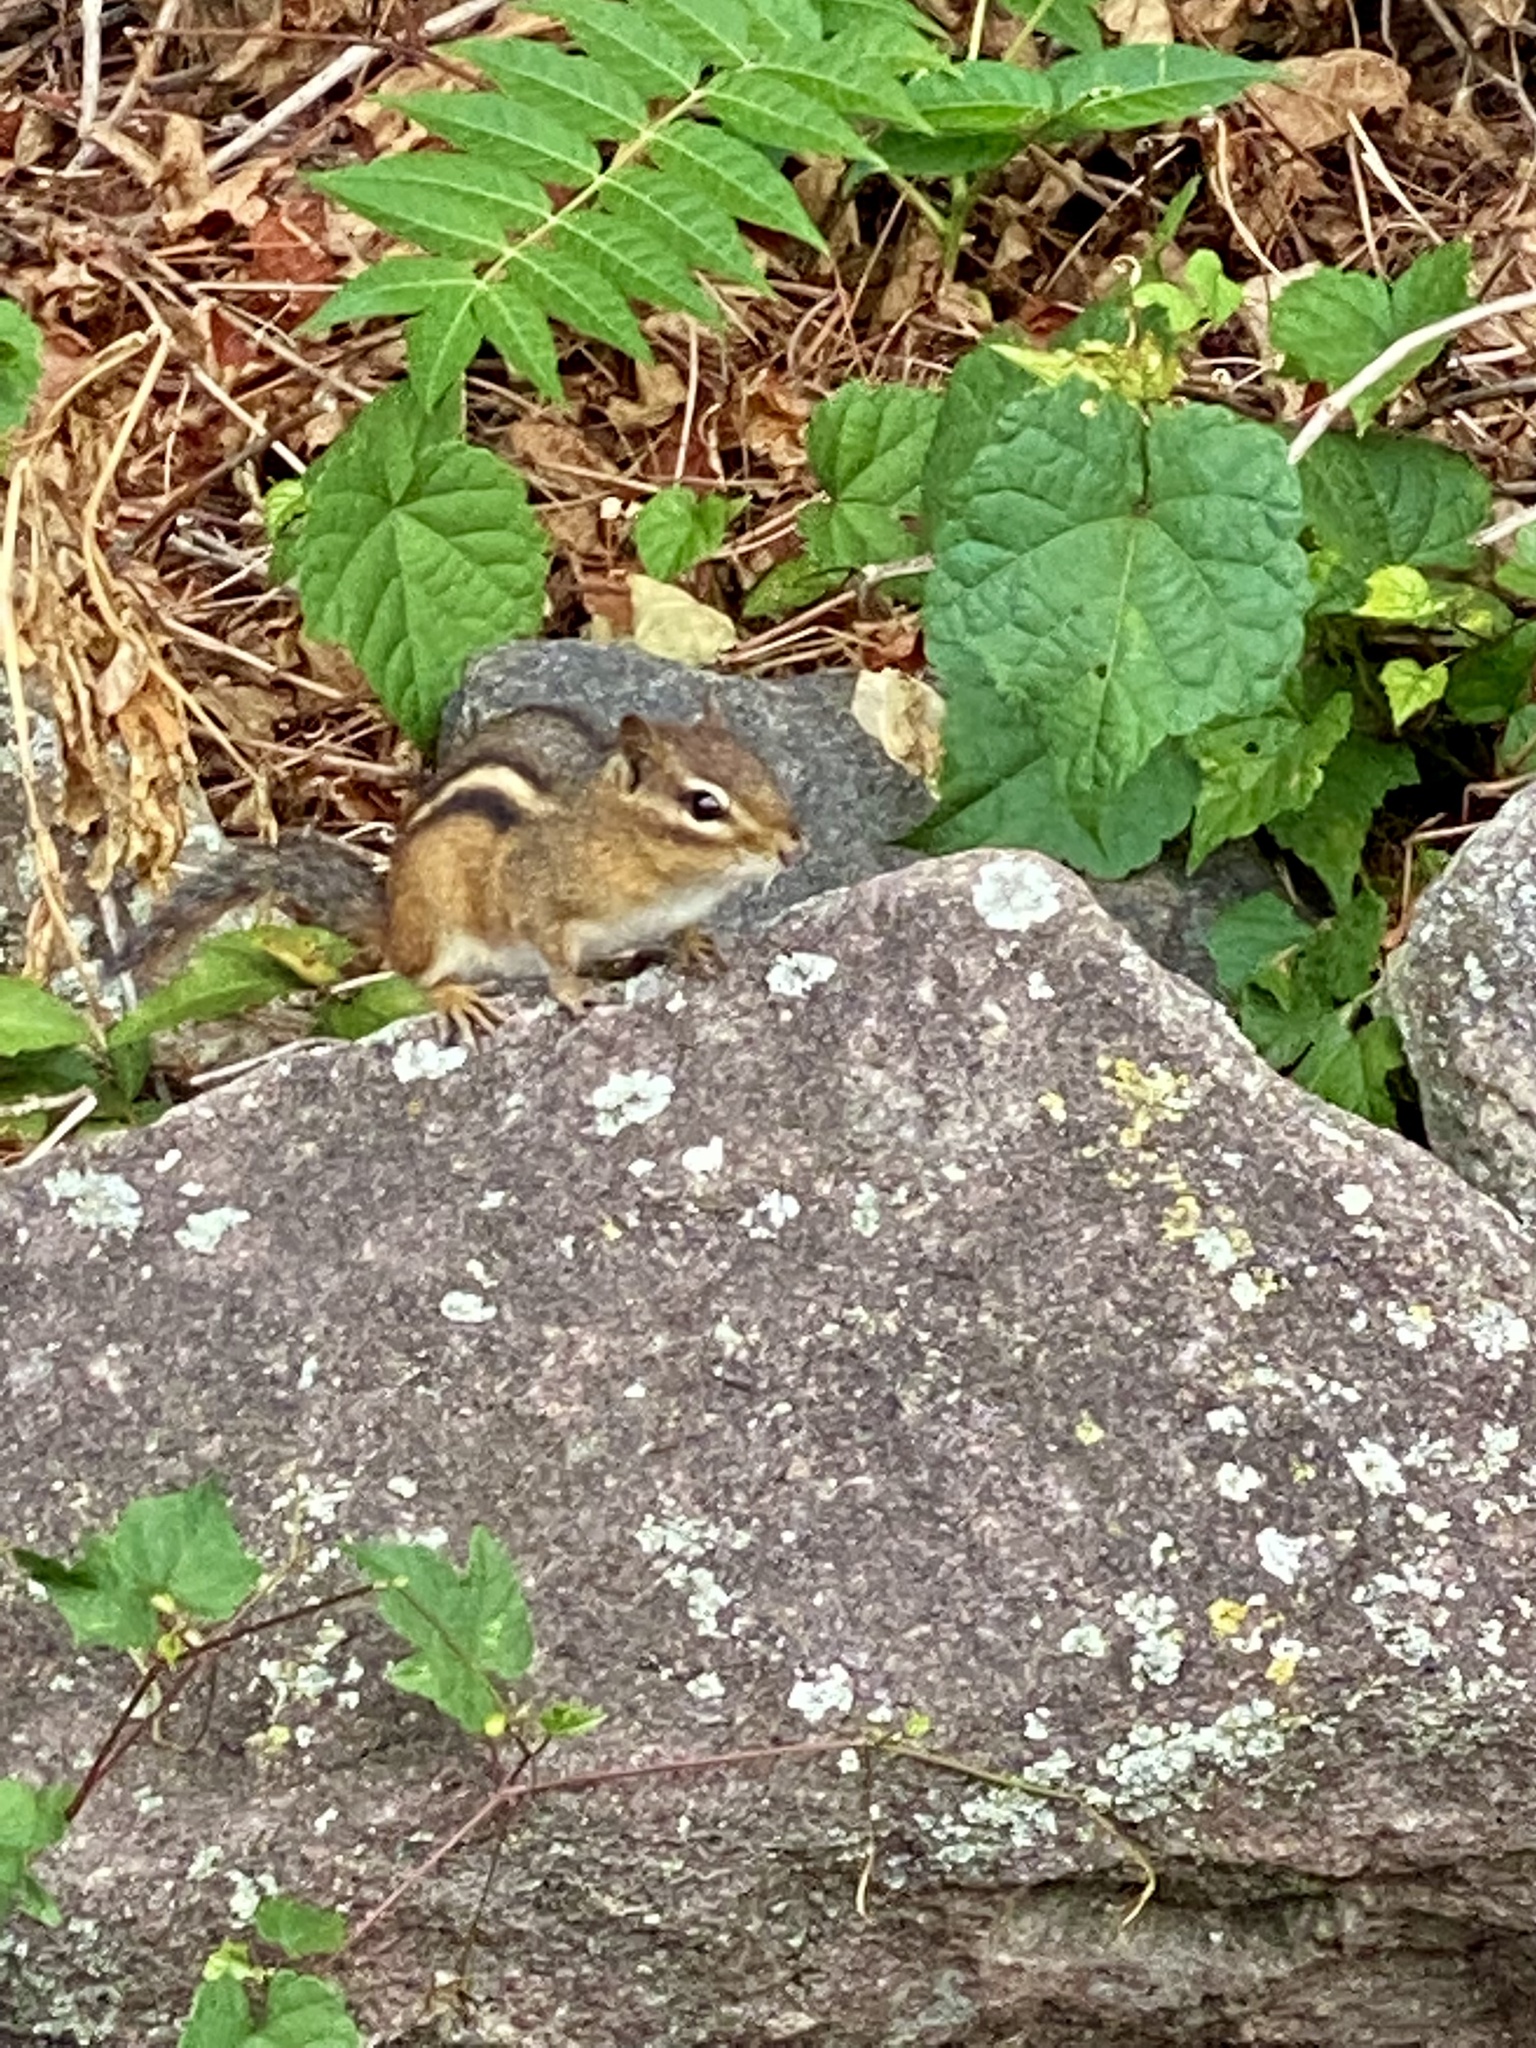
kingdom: Animalia
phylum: Chordata
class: Mammalia
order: Rodentia
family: Sciuridae
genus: Tamias
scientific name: Tamias striatus
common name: Eastern chipmunk
